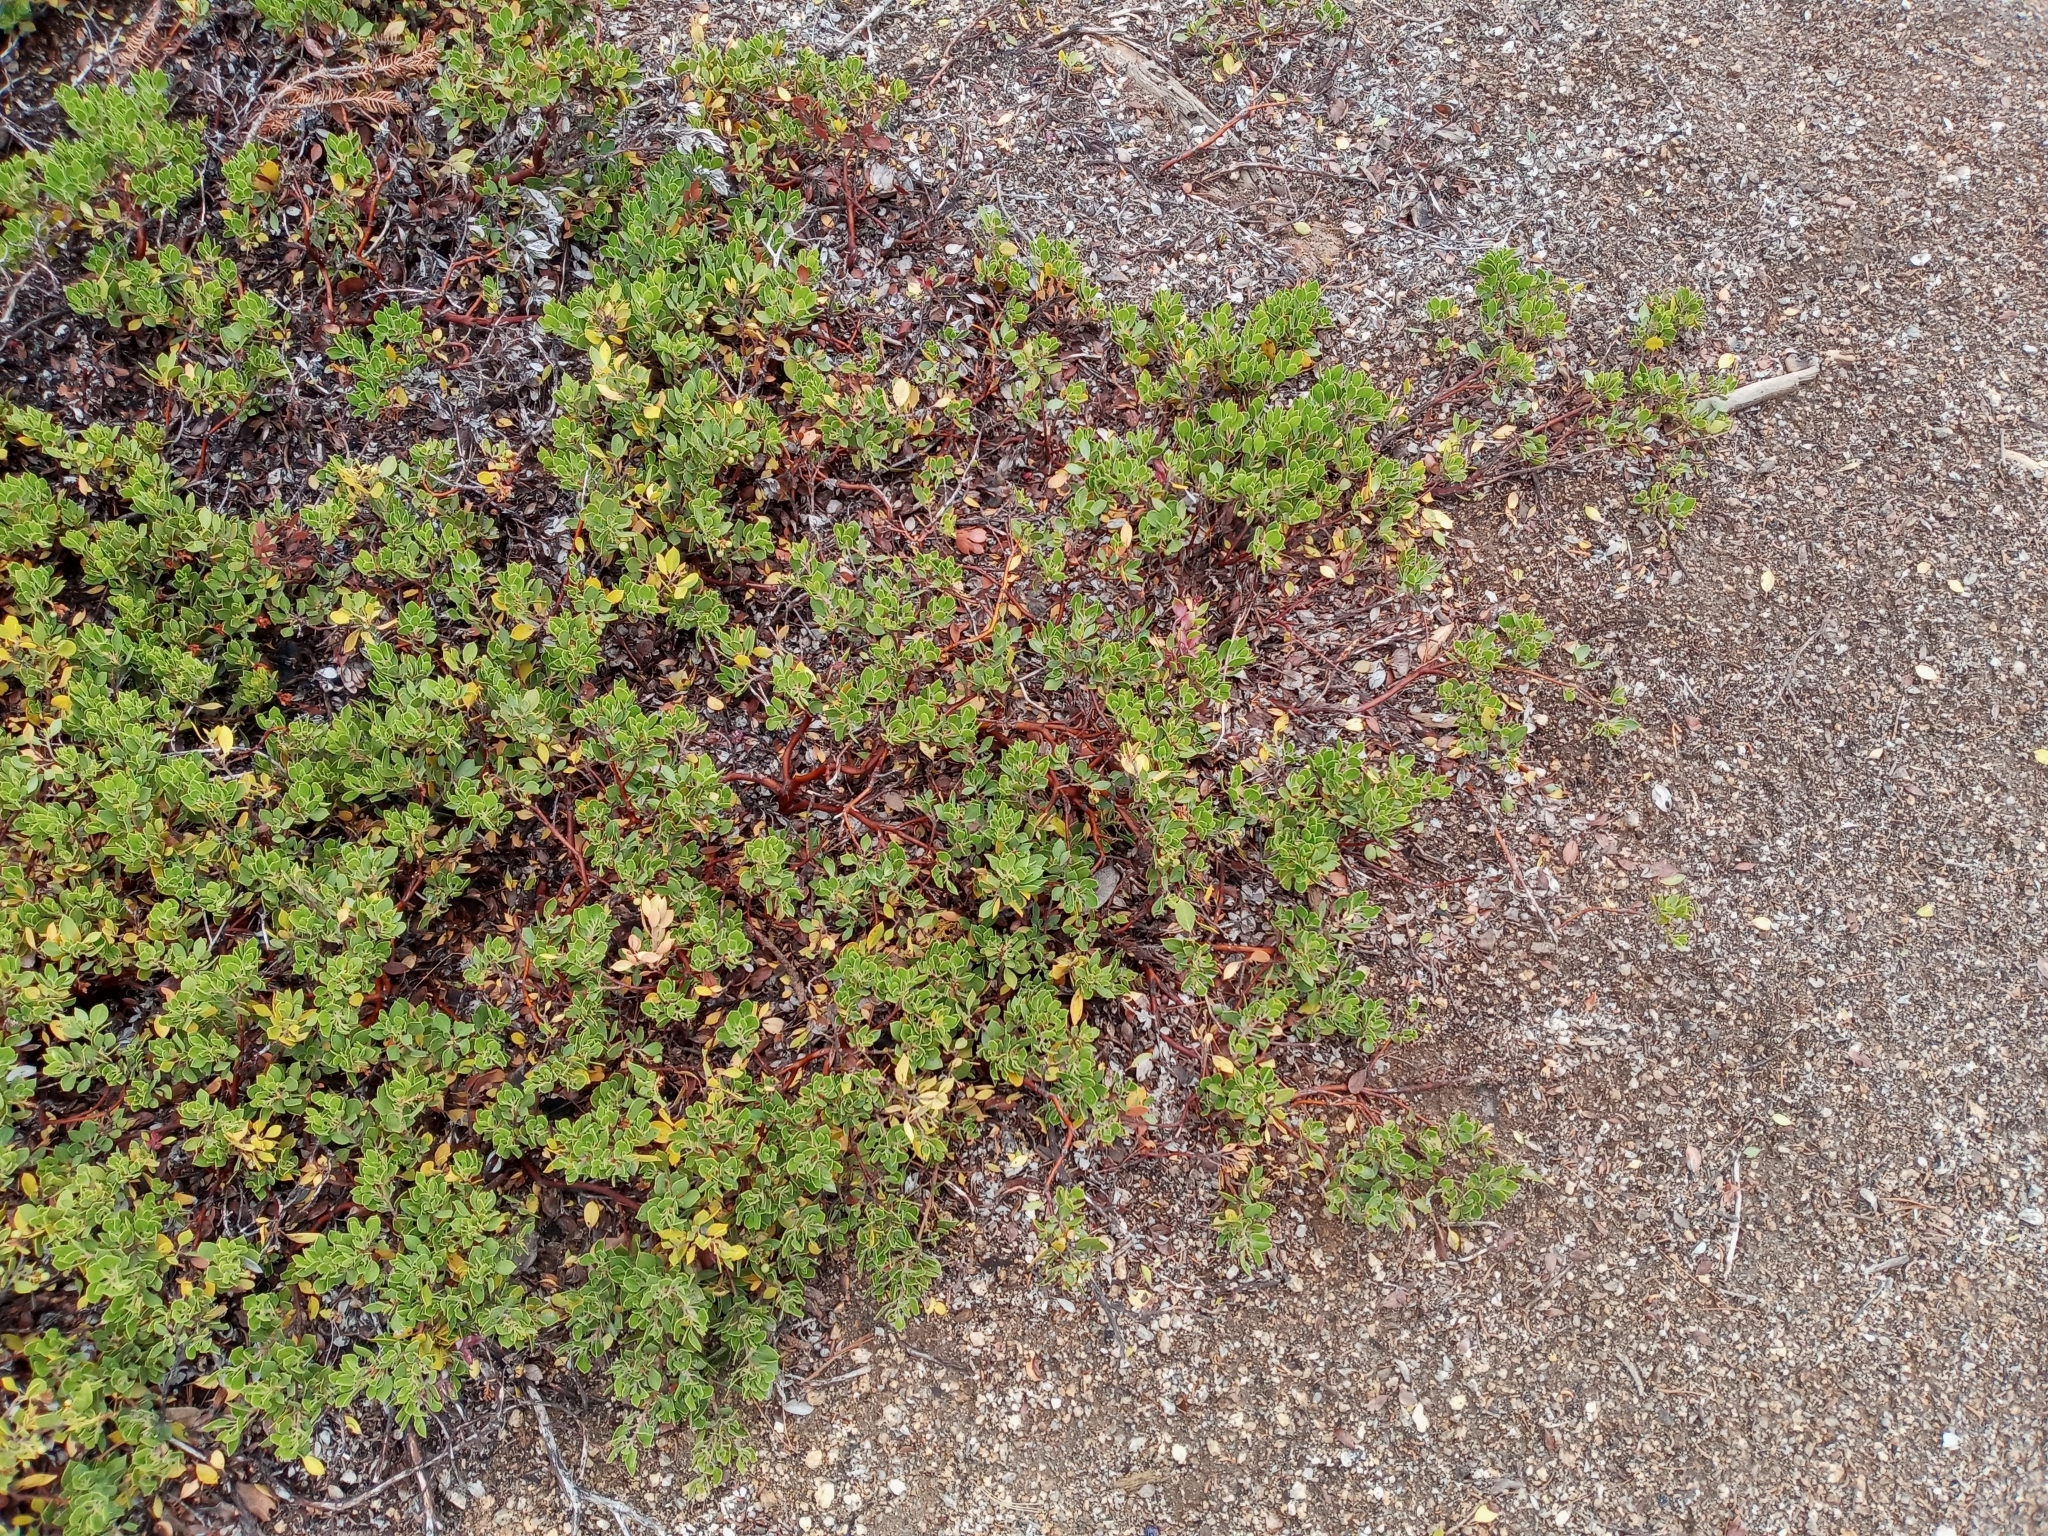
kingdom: Plantae
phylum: Tracheophyta
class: Magnoliopsida
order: Ericales
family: Ericaceae
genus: Arctostaphylos
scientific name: Arctostaphylos nevadensis
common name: Pinemat manzanita
